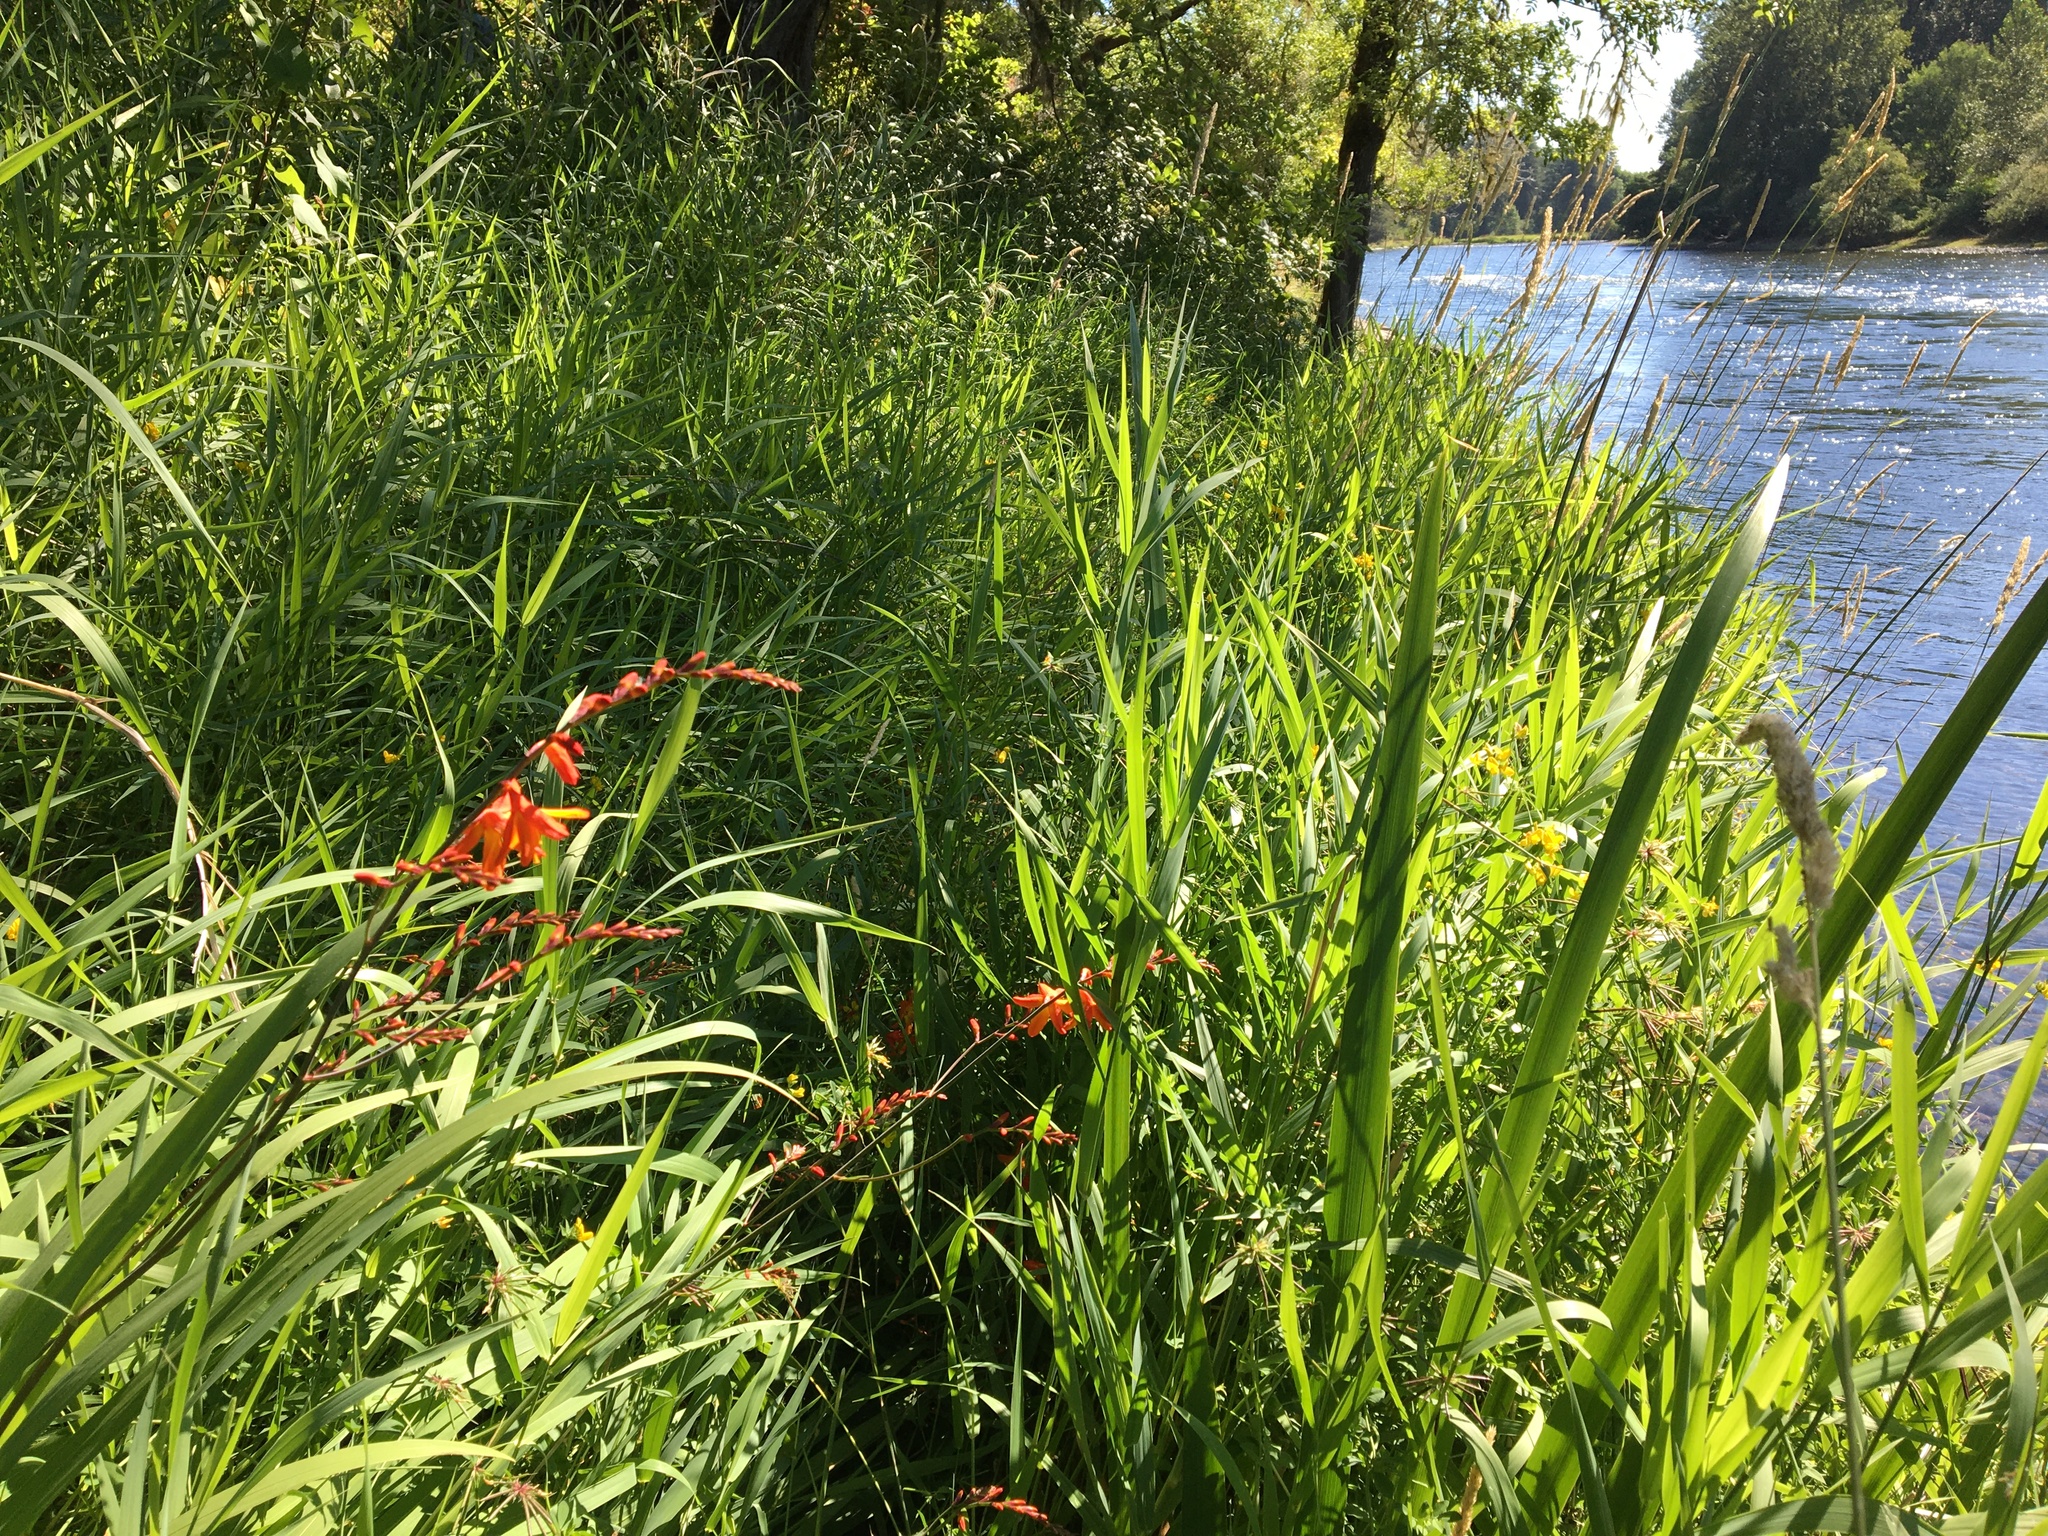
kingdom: Plantae
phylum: Tracheophyta
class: Liliopsida
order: Asparagales
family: Iridaceae
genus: Crocosmia
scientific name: Crocosmia crocosmiiflora
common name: Montbretia
